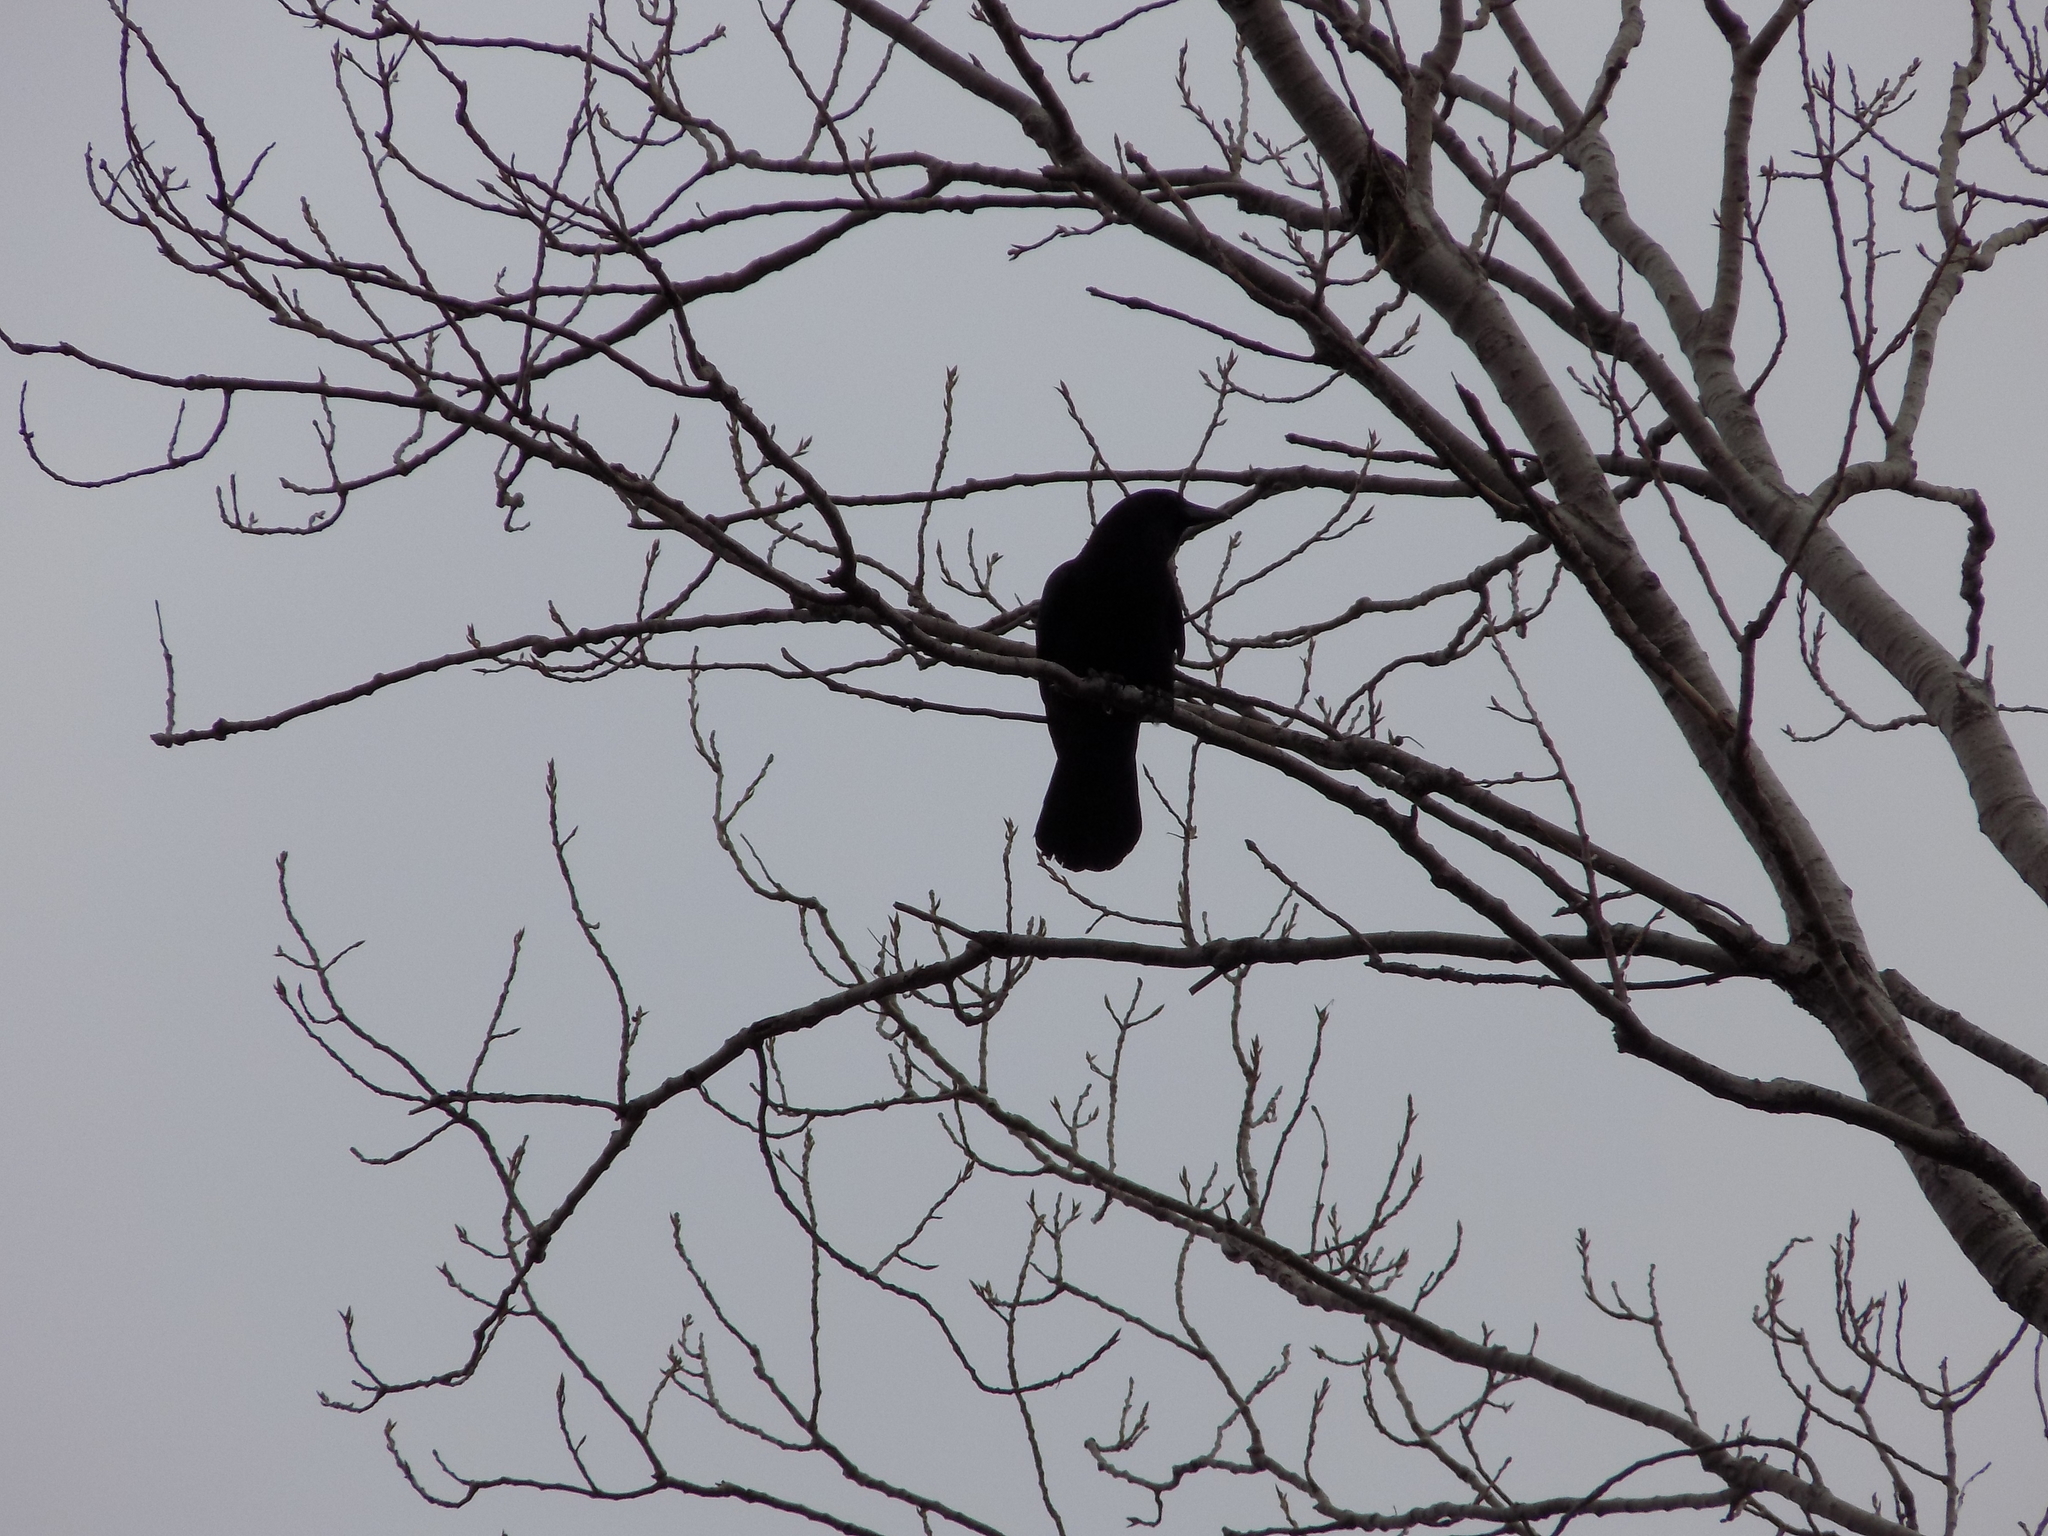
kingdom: Animalia
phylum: Chordata
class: Aves
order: Passeriformes
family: Corvidae
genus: Corvus
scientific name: Corvus brachyrhynchos
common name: American crow
